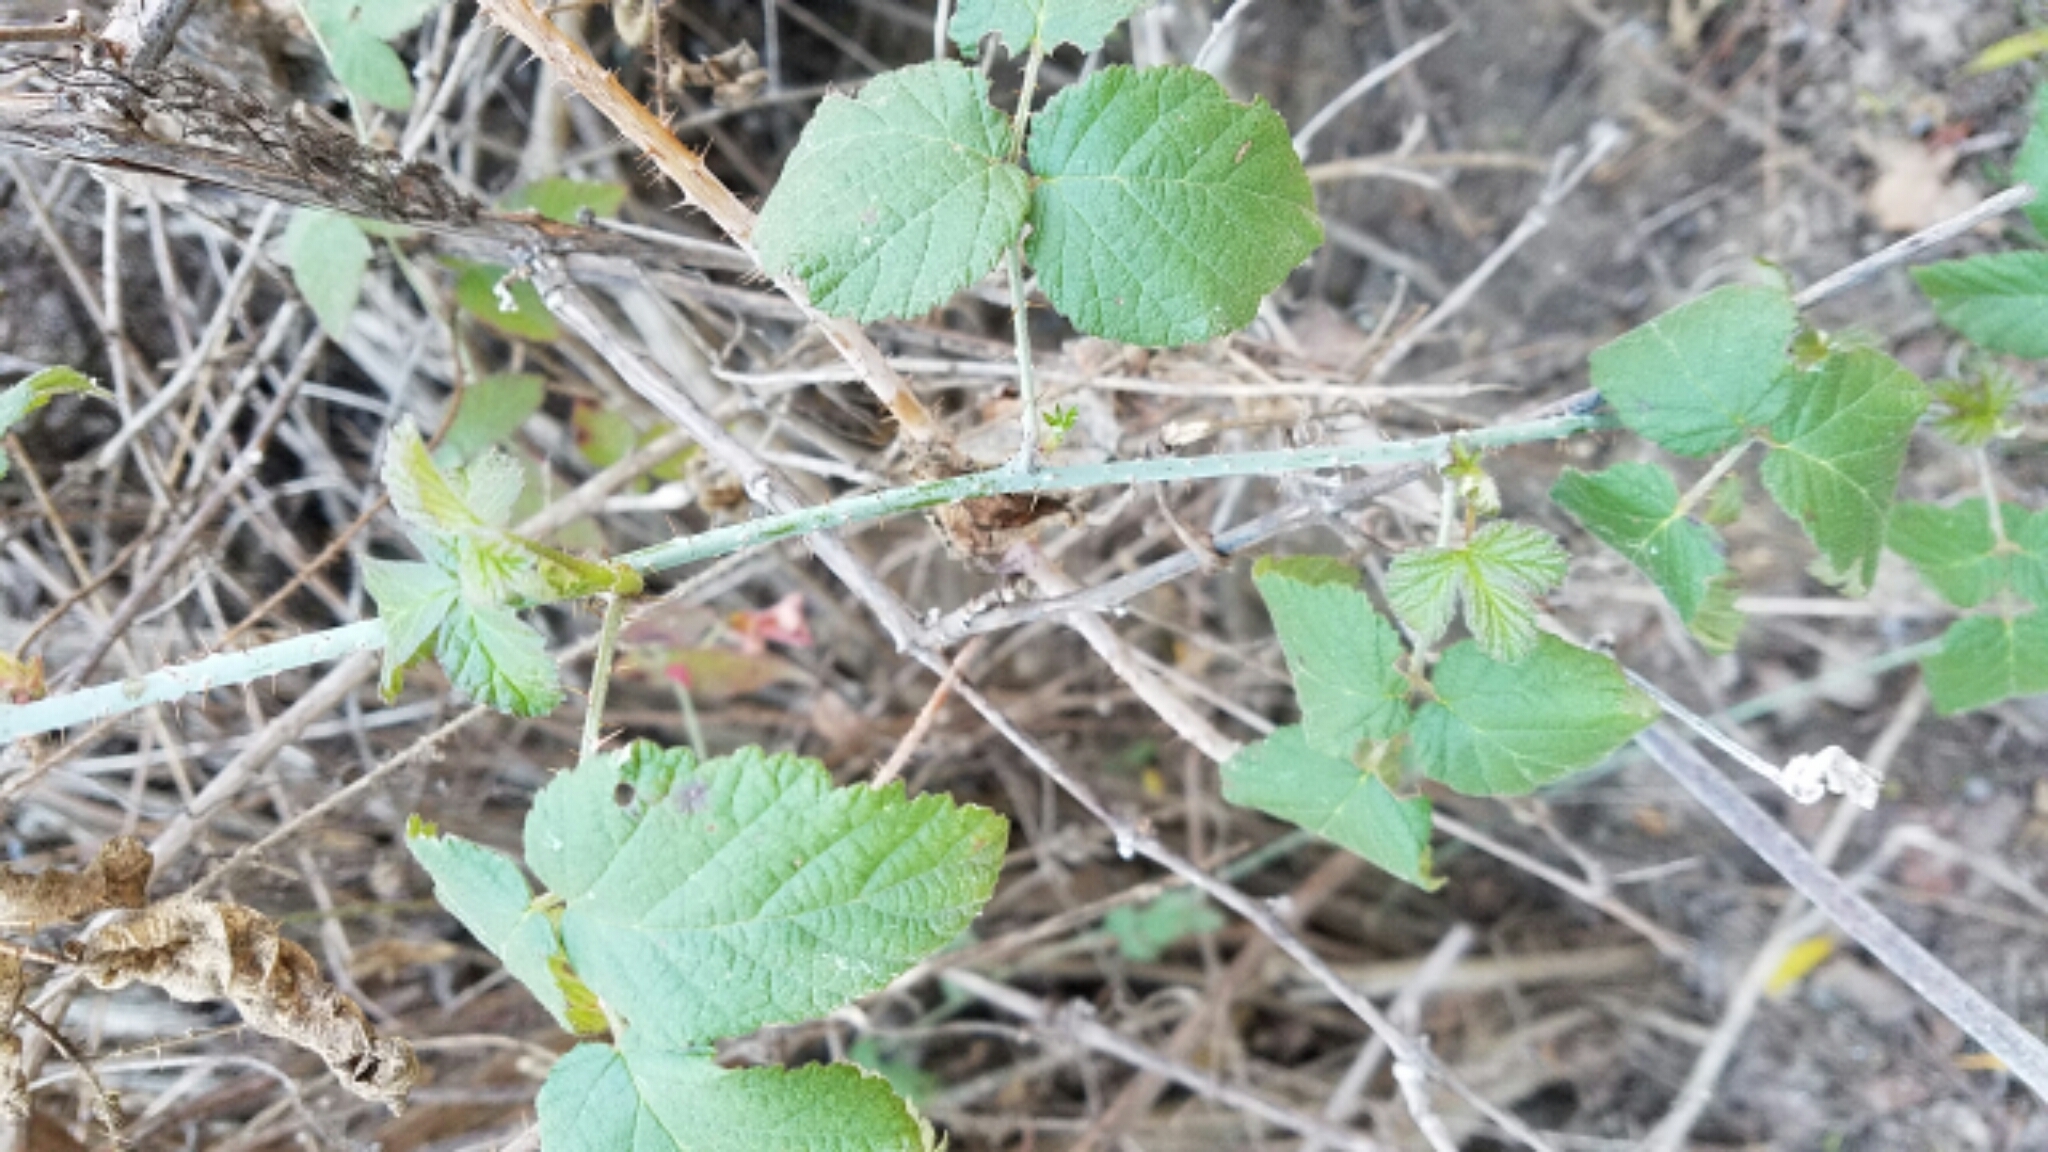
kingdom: Plantae
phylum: Tracheophyta
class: Magnoliopsida
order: Rosales
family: Rosaceae
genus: Rubus
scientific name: Rubus ursinus
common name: Pacific blackberry
